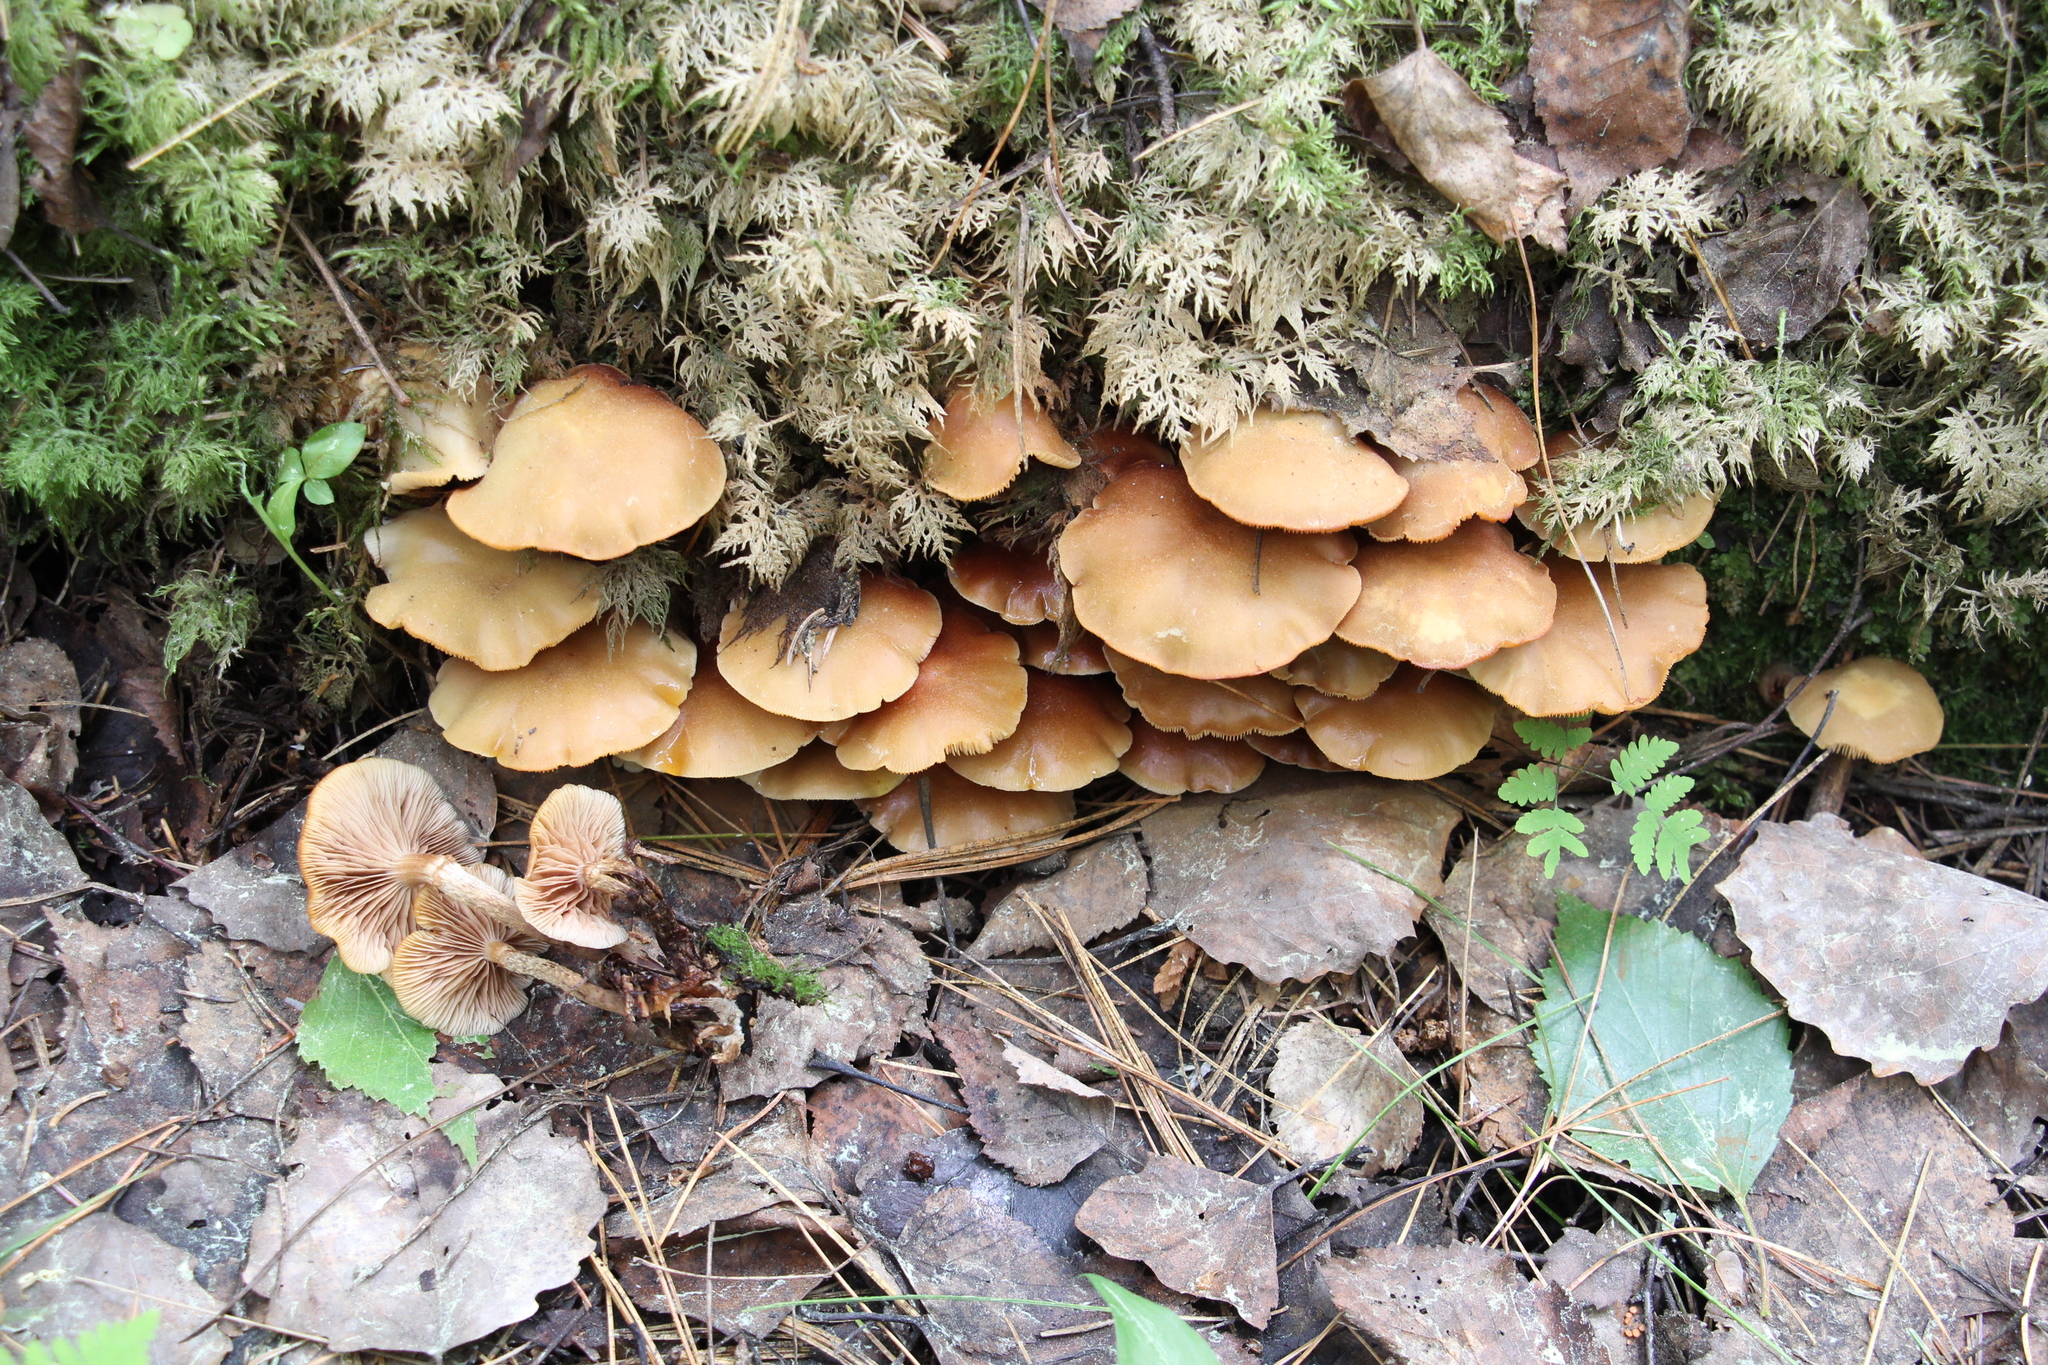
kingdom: Fungi
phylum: Basidiomycota
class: Agaricomycetes
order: Agaricales
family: Strophariaceae
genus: Kuehneromyces
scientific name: Kuehneromyces mutabilis
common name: Sheathed woodtuft
